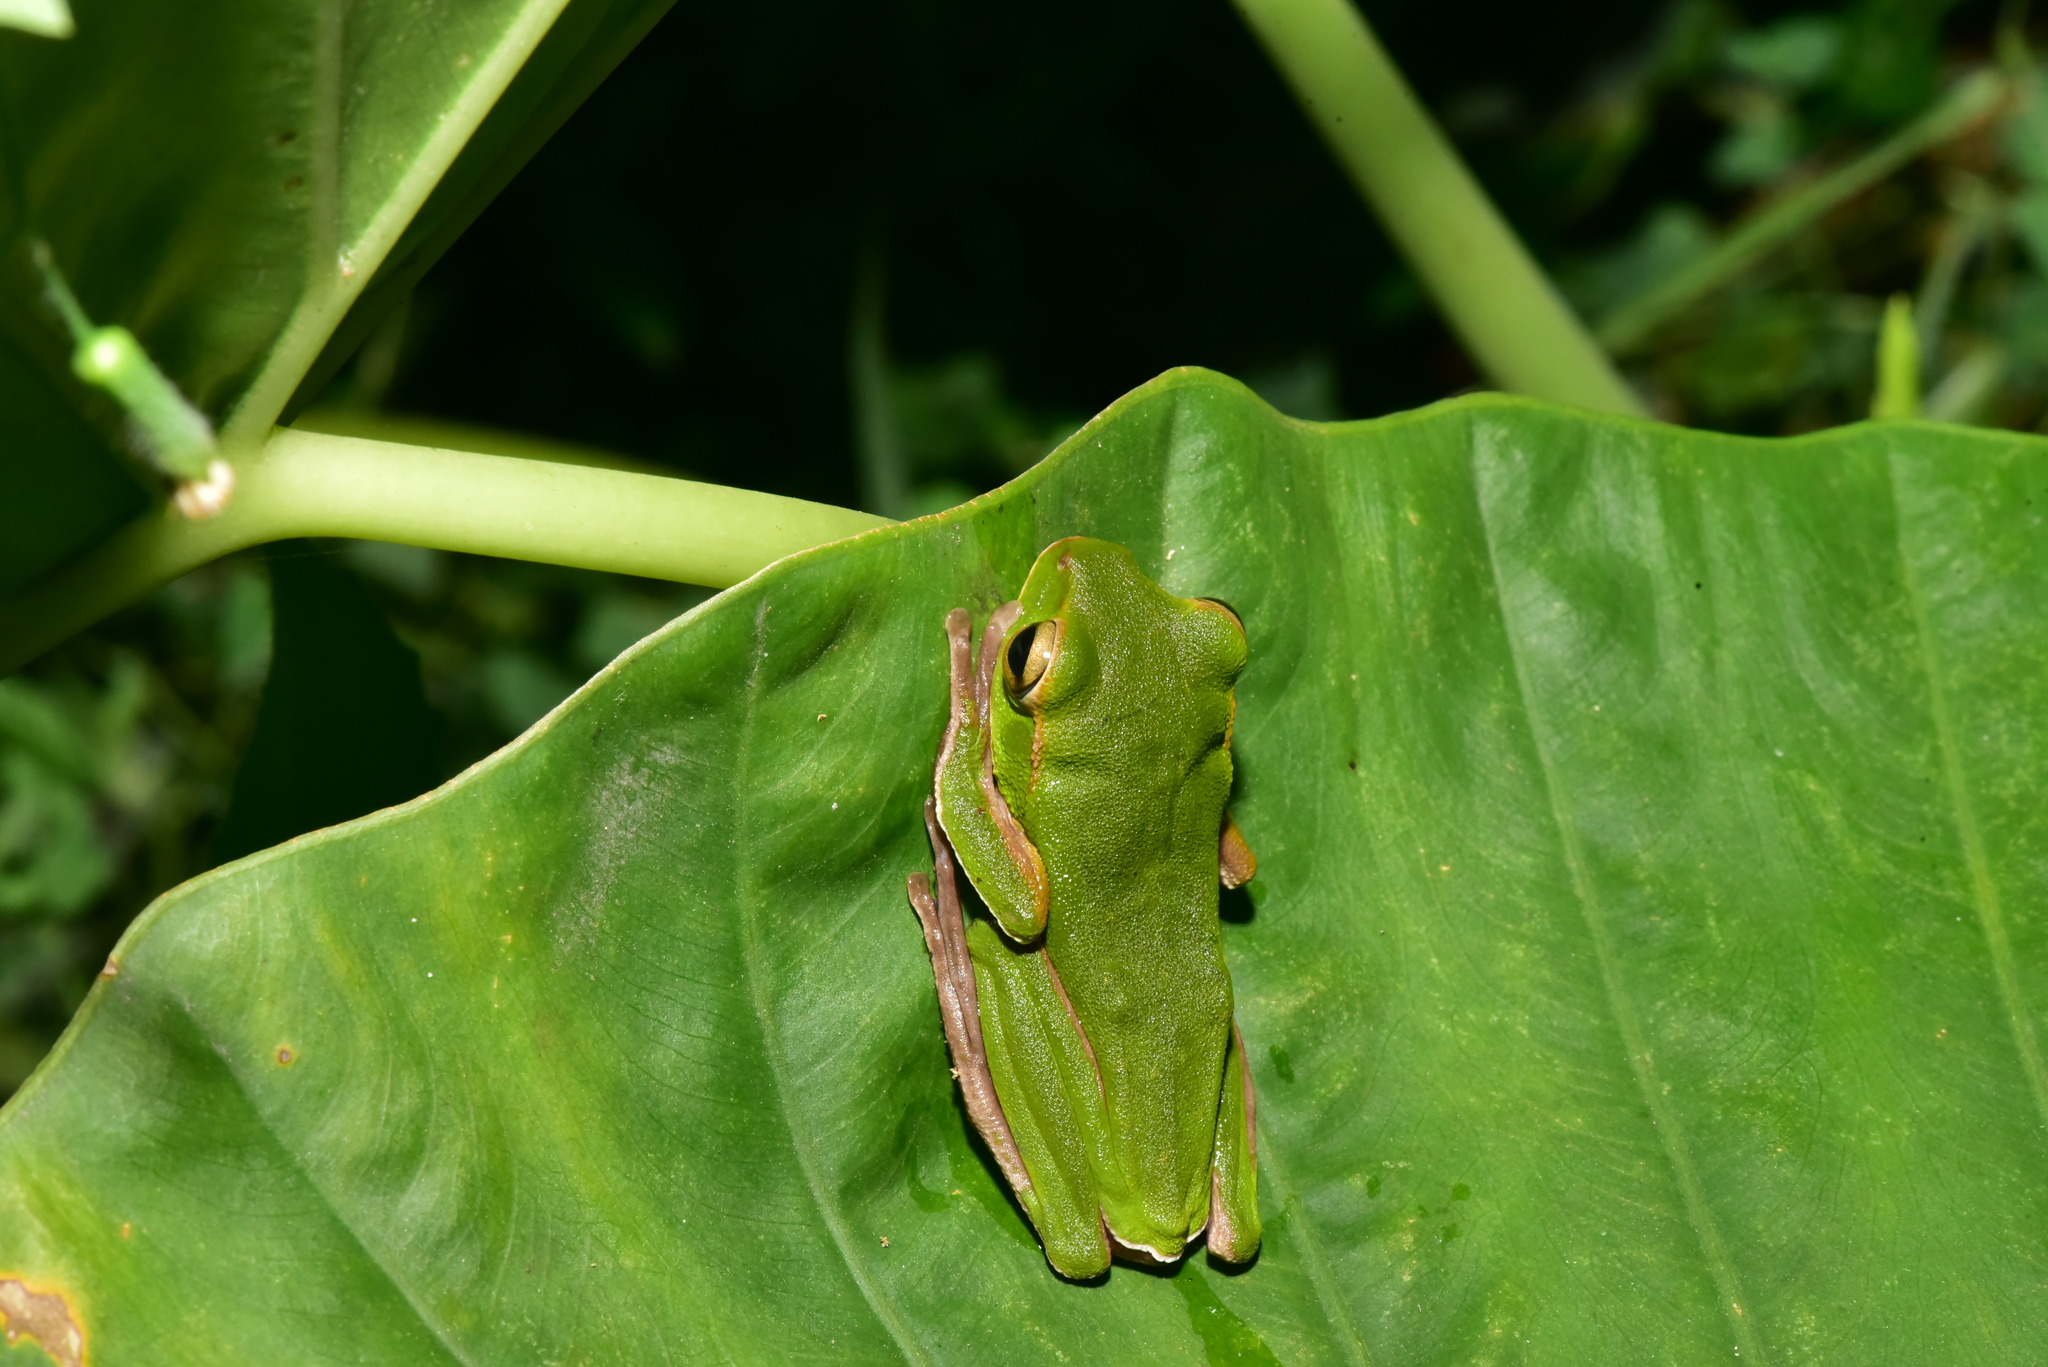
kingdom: Animalia
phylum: Chordata
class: Amphibia
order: Anura
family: Rhacophoridae
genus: Zhangixalus
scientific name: Zhangixalus prasinatus
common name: Tributary flying frog
